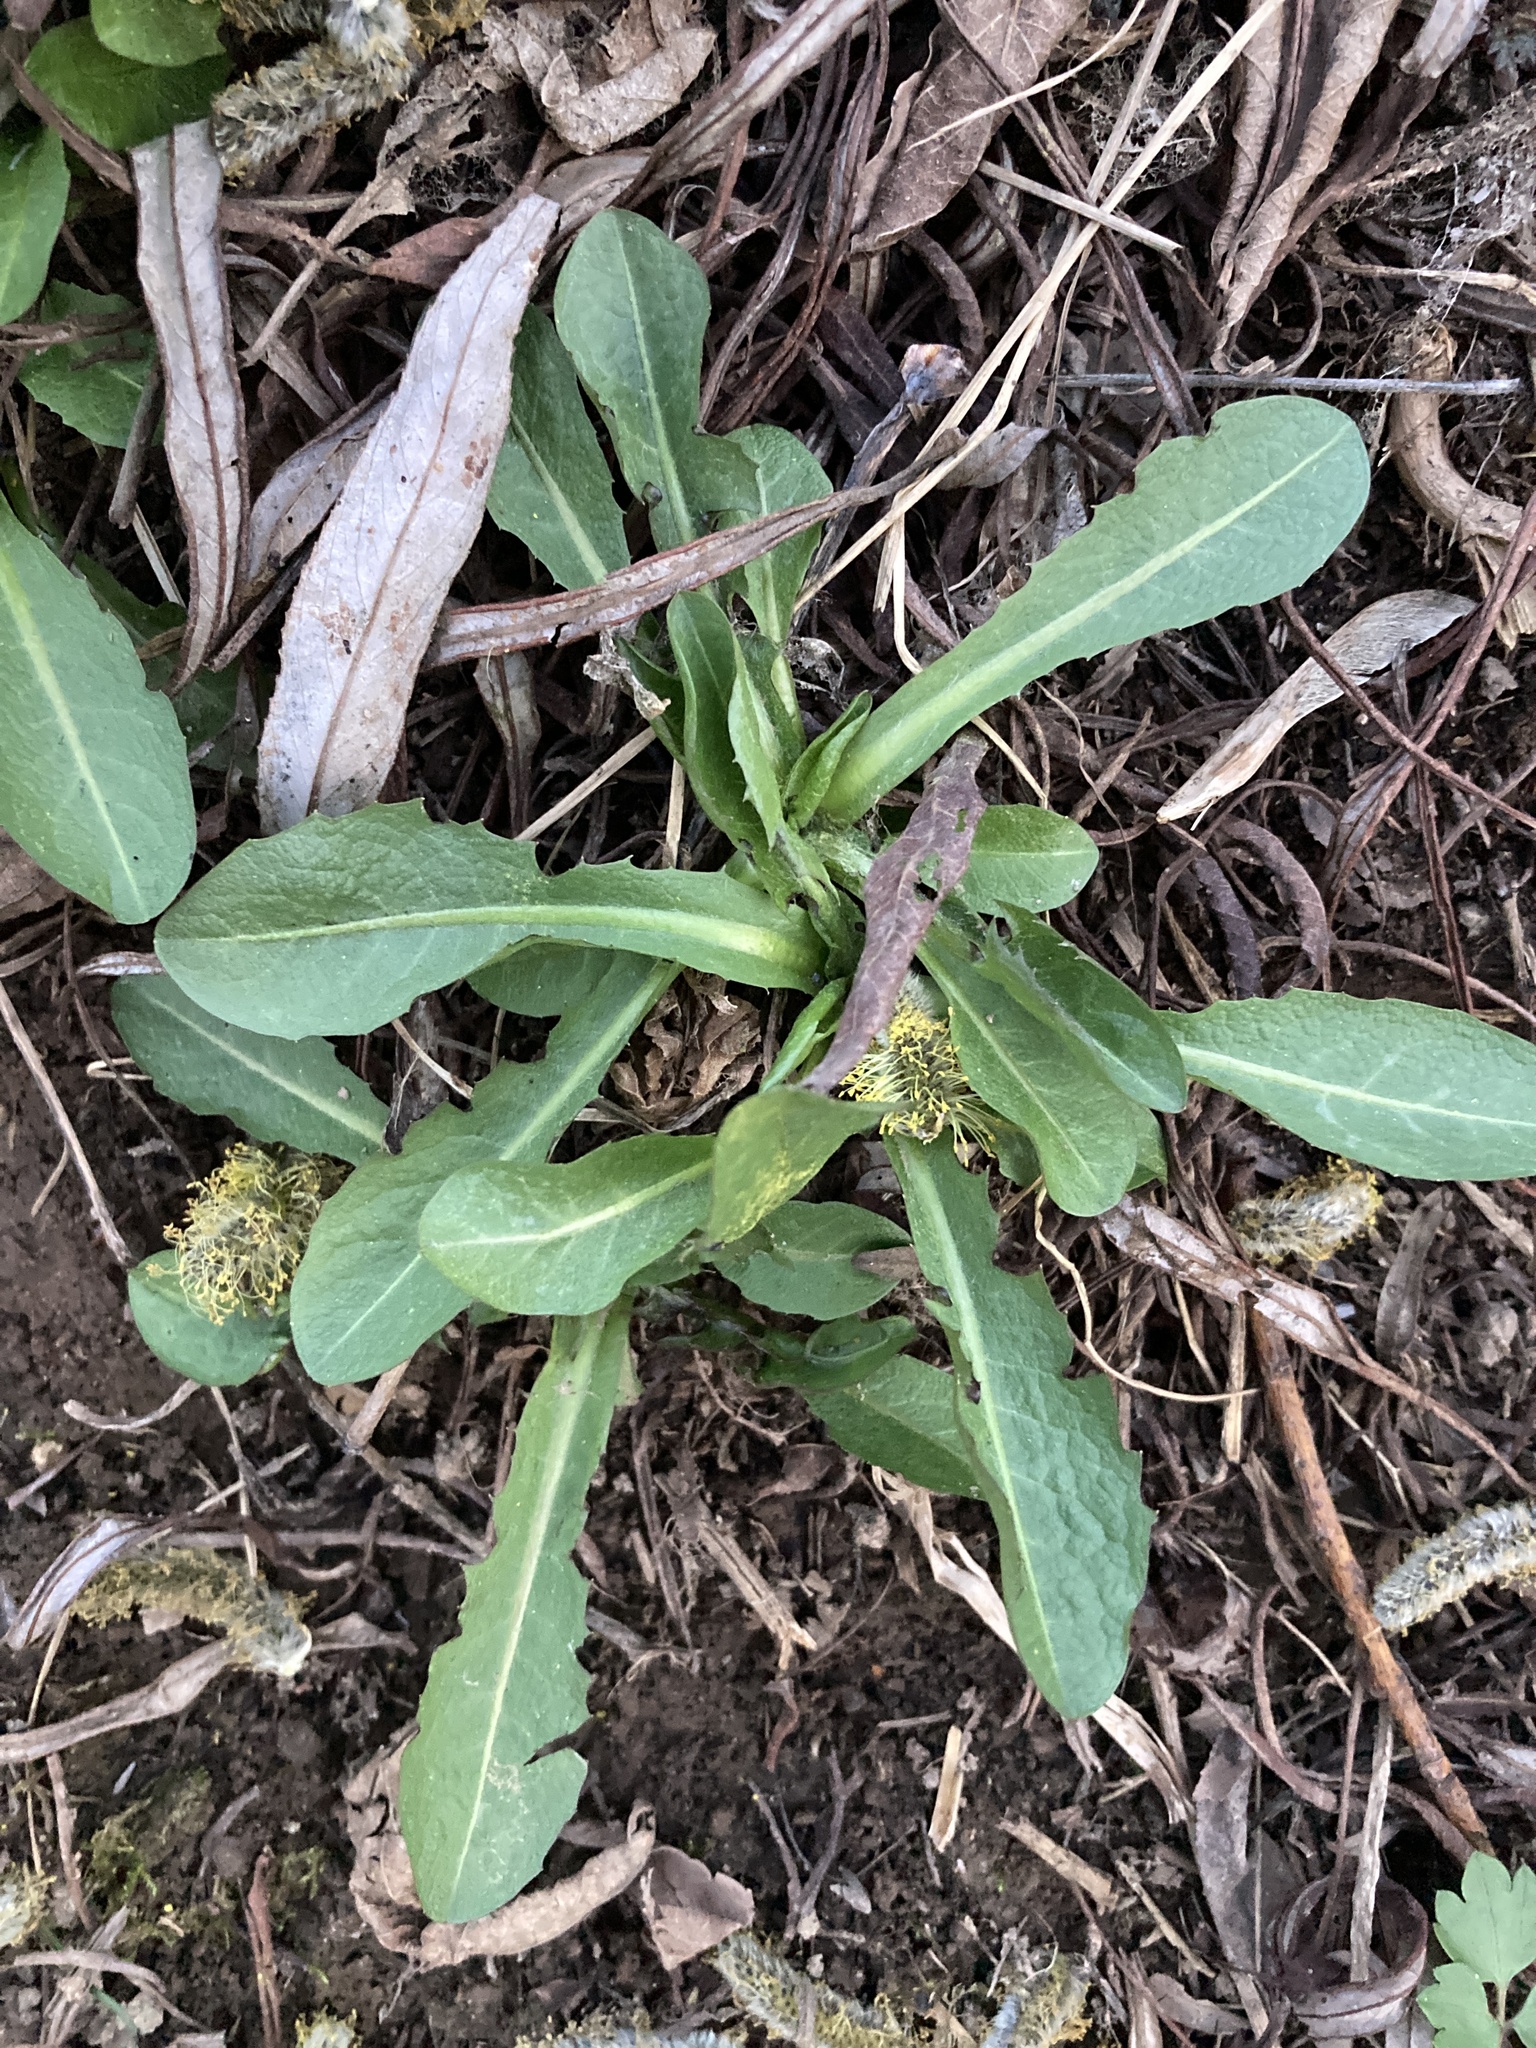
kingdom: Plantae
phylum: Tracheophyta
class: Magnoliopsida
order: Asterales
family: Asteraceae
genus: Lactuca
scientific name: Lactuca serriola
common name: Prickly lettuce
